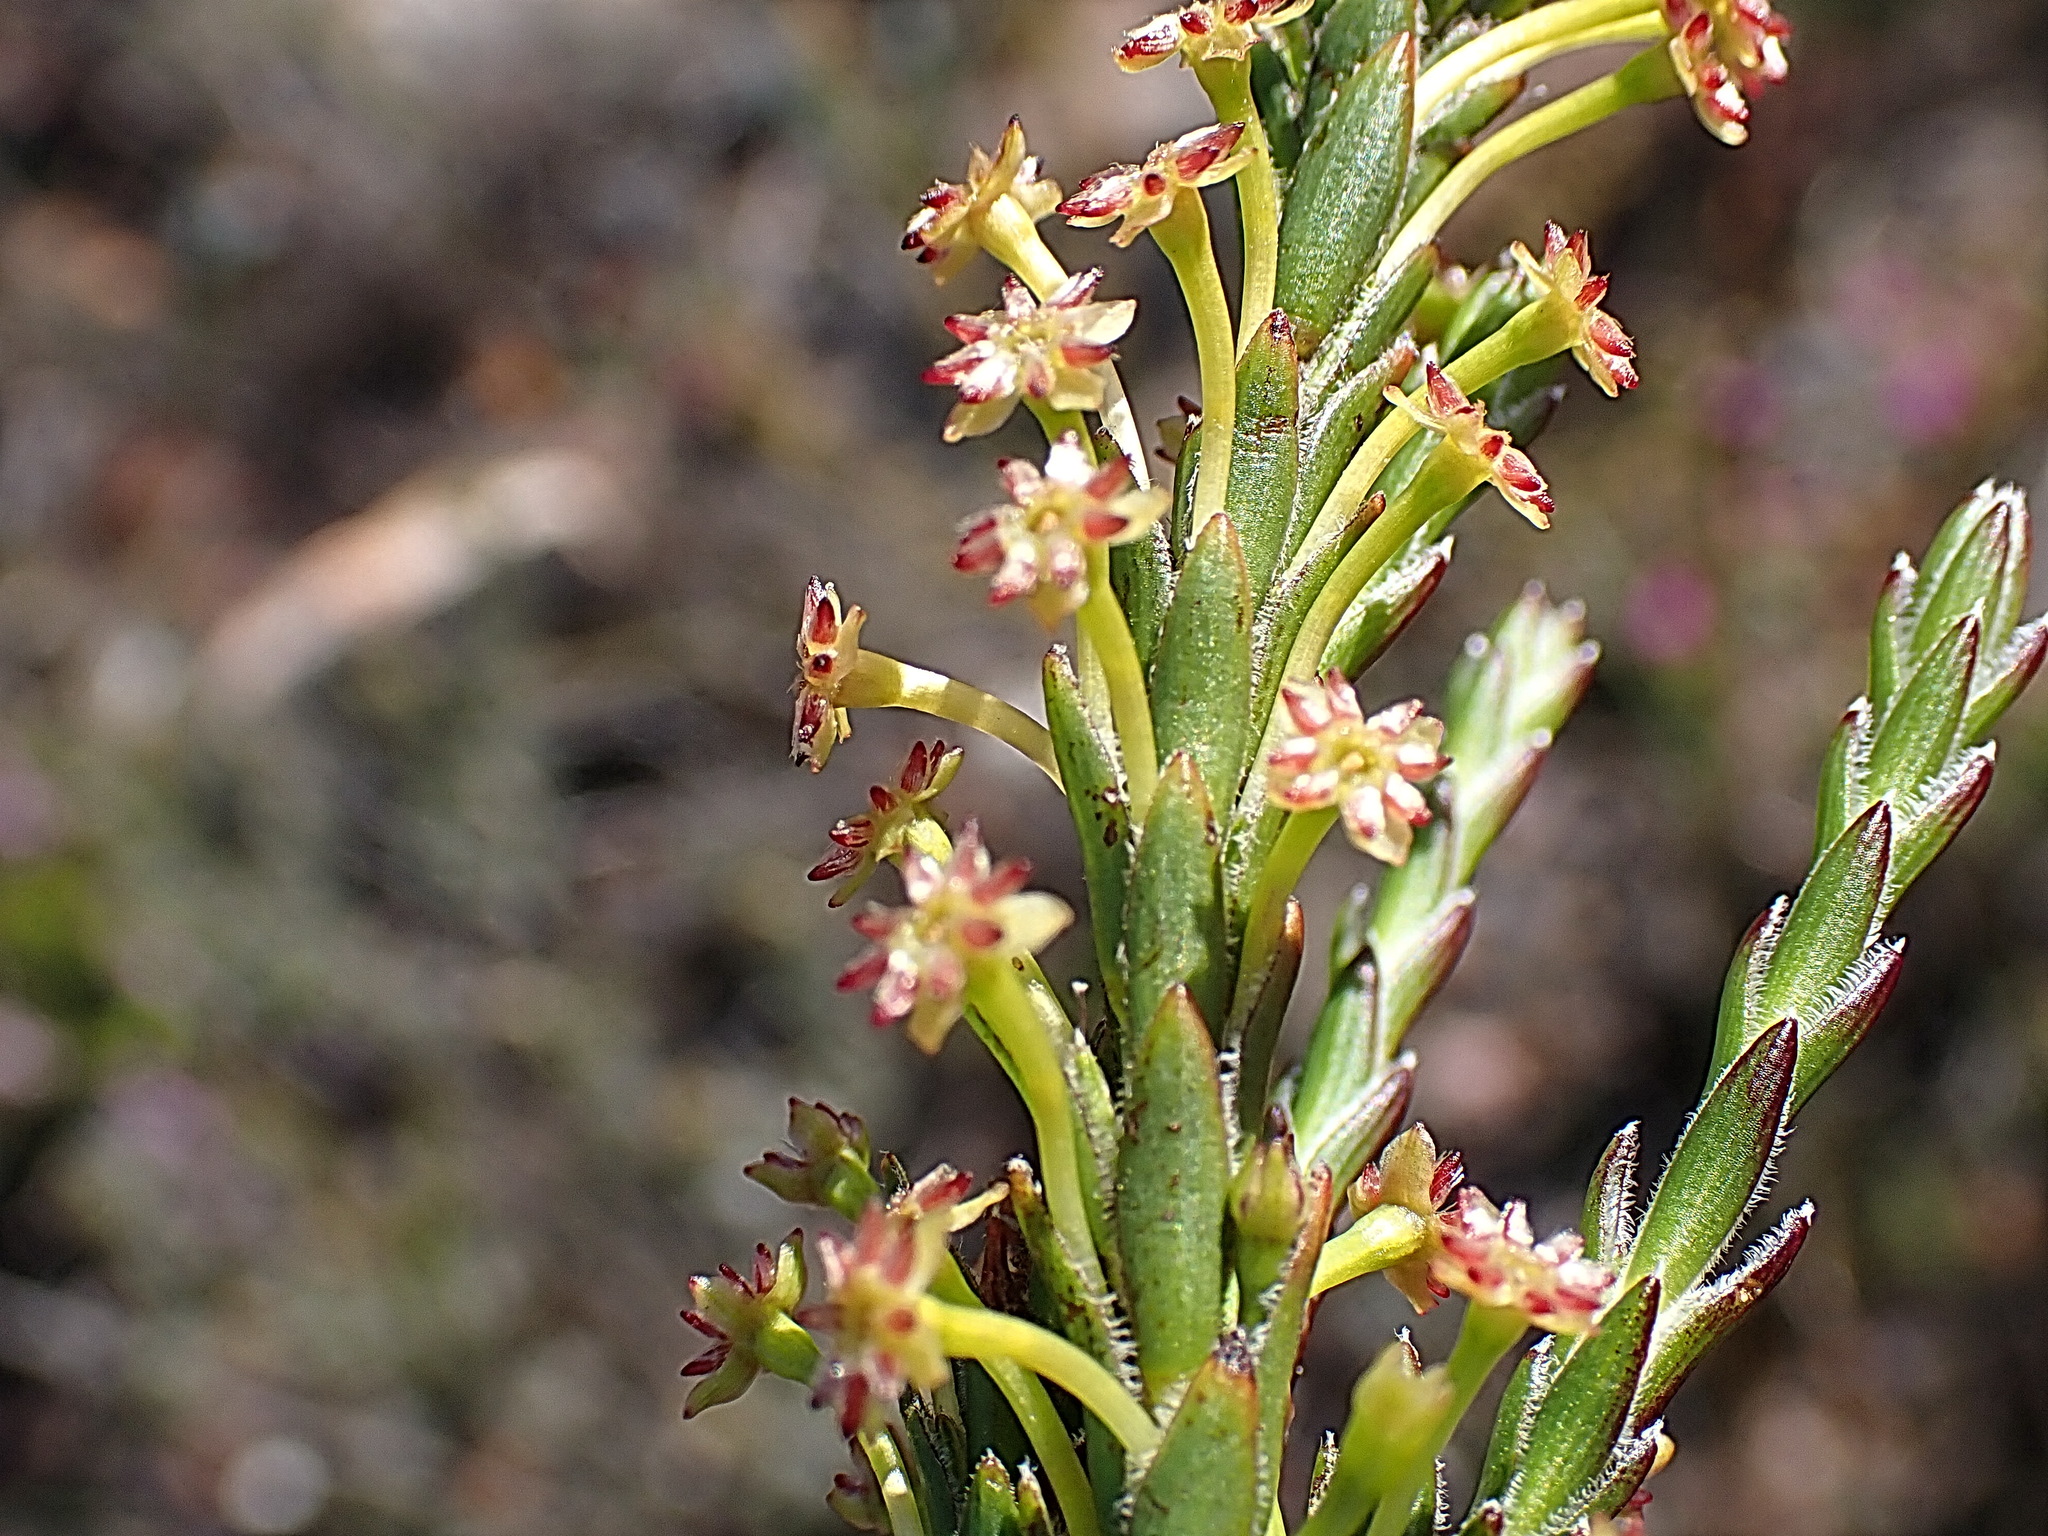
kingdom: Plantae
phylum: Tracheophyta
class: Magnoliopsida
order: Malvales
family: Thymelaeaceae
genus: Struthiola
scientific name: Struthiola eckloniana
